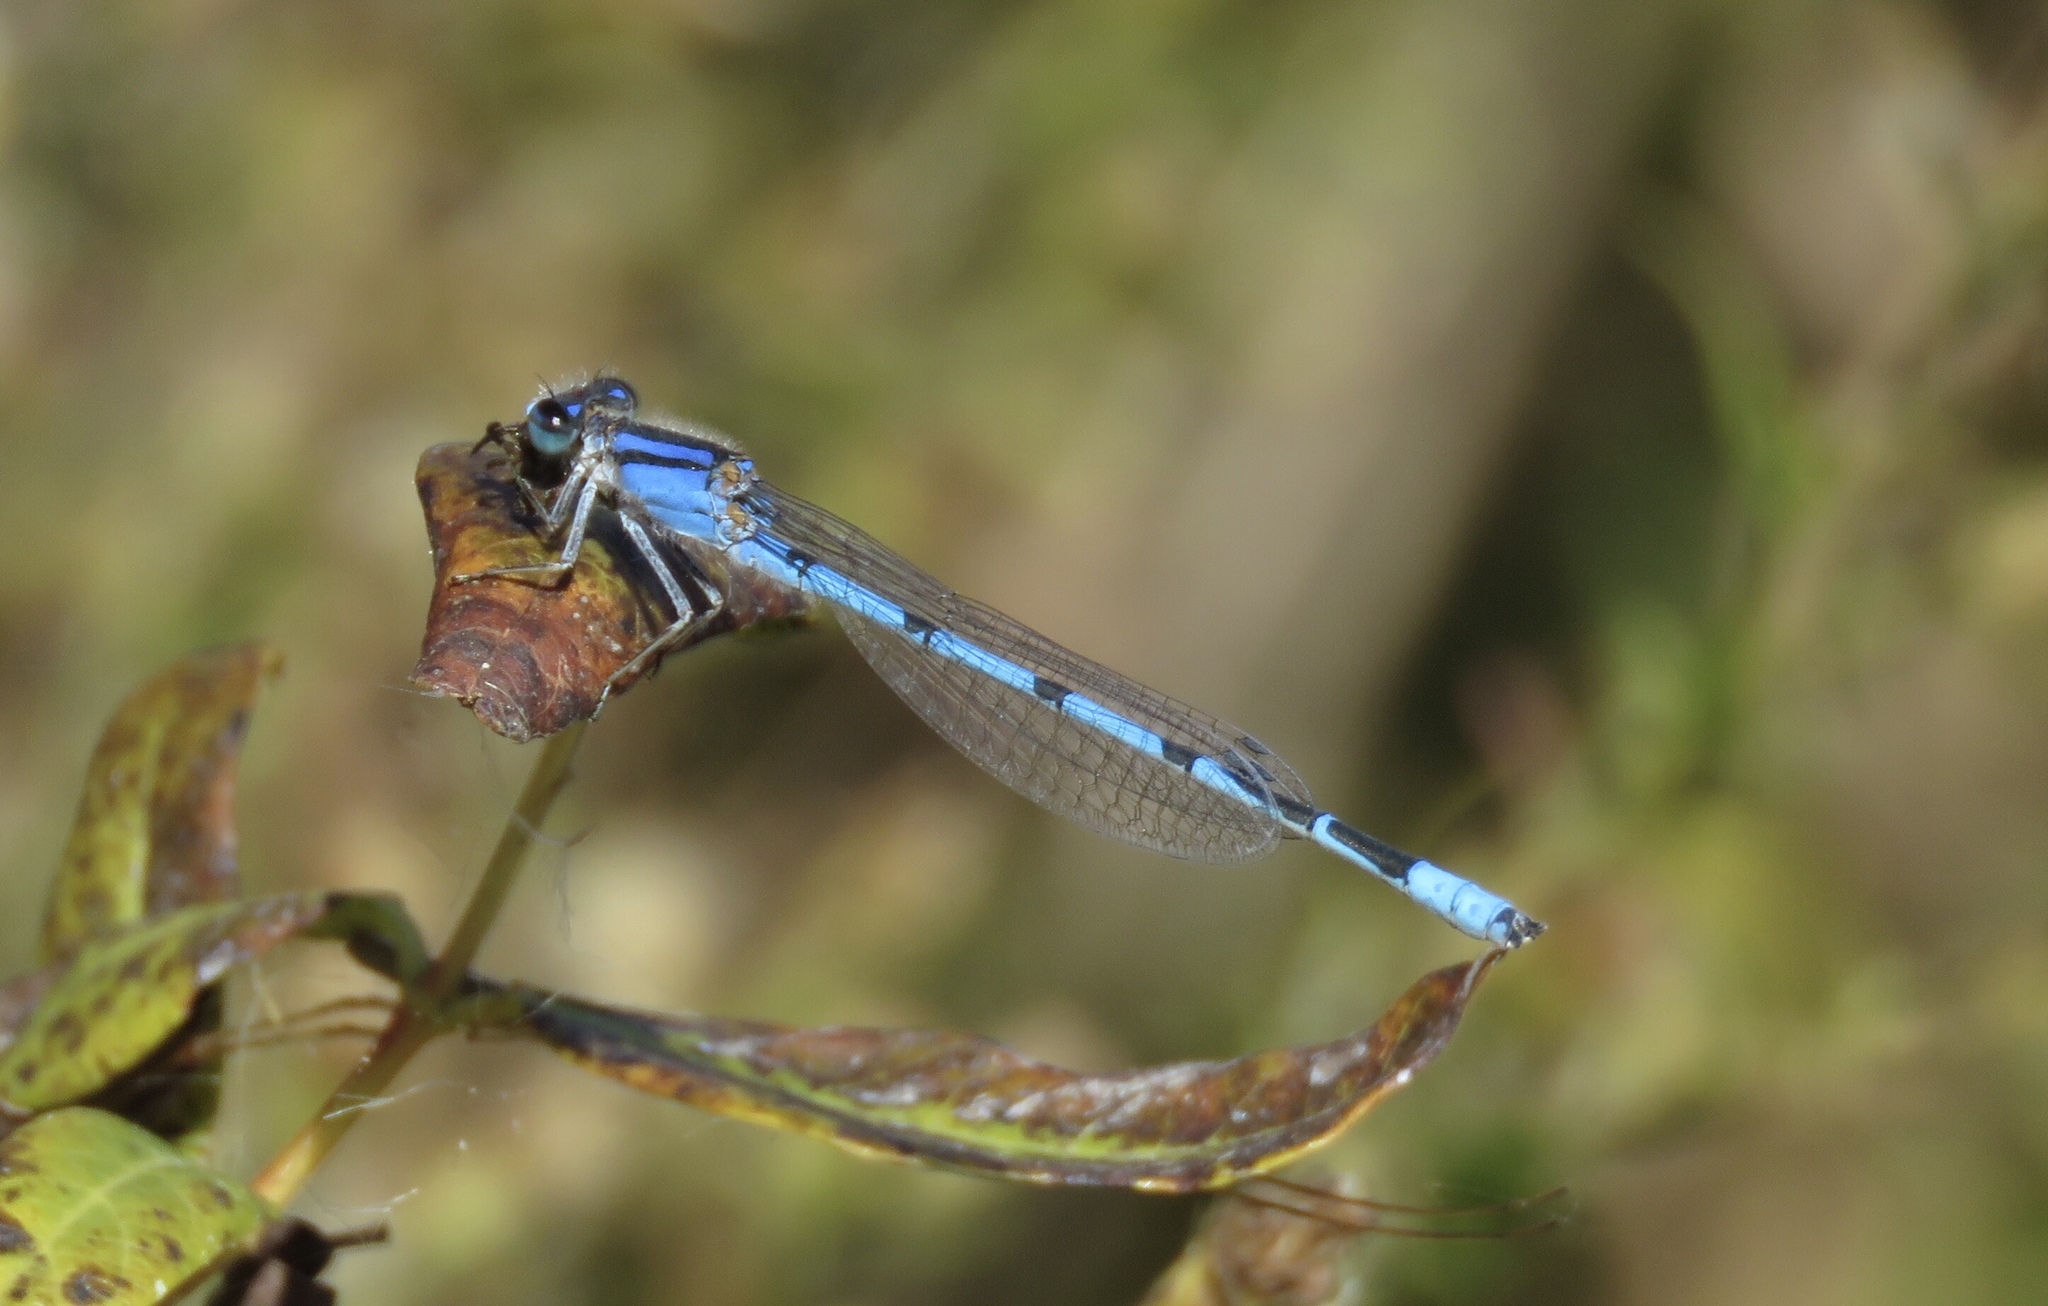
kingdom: Animalia
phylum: Arthropoda
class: Insecta
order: Odonata
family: Coenagrionidae
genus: Enallagma
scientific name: Enallagma civile
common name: Damselfly
